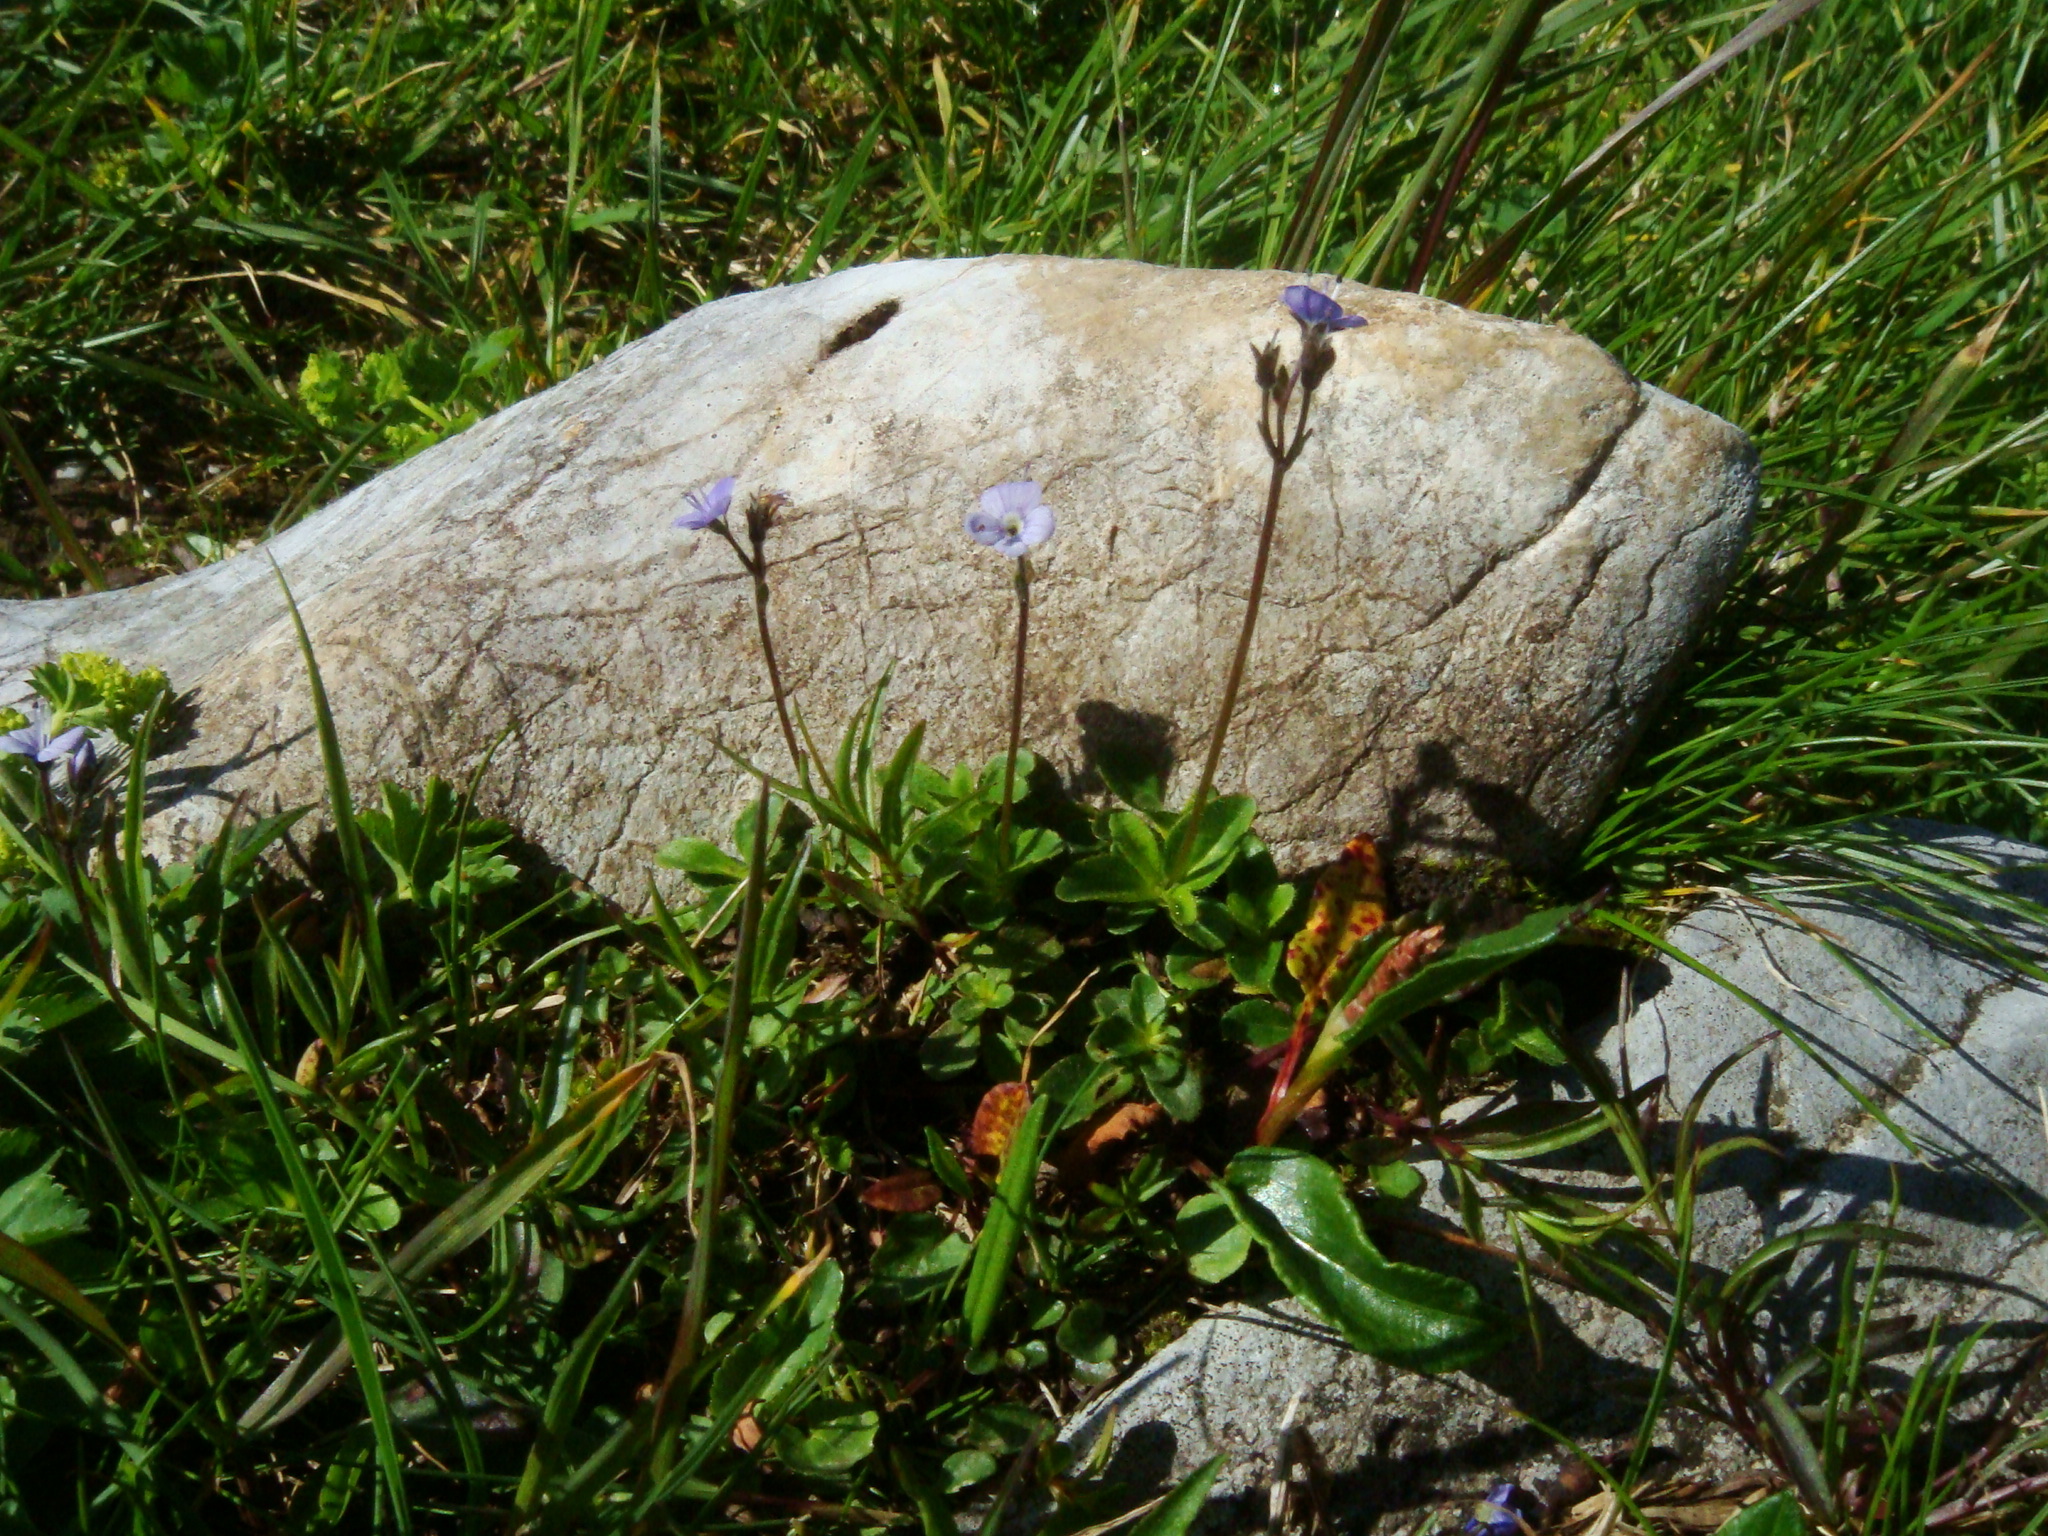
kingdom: Plantae
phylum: Tracheophyta
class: Magnoliopsida
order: Lamiales
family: Plantaginaceae
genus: Veronica
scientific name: Veronica aphylla
